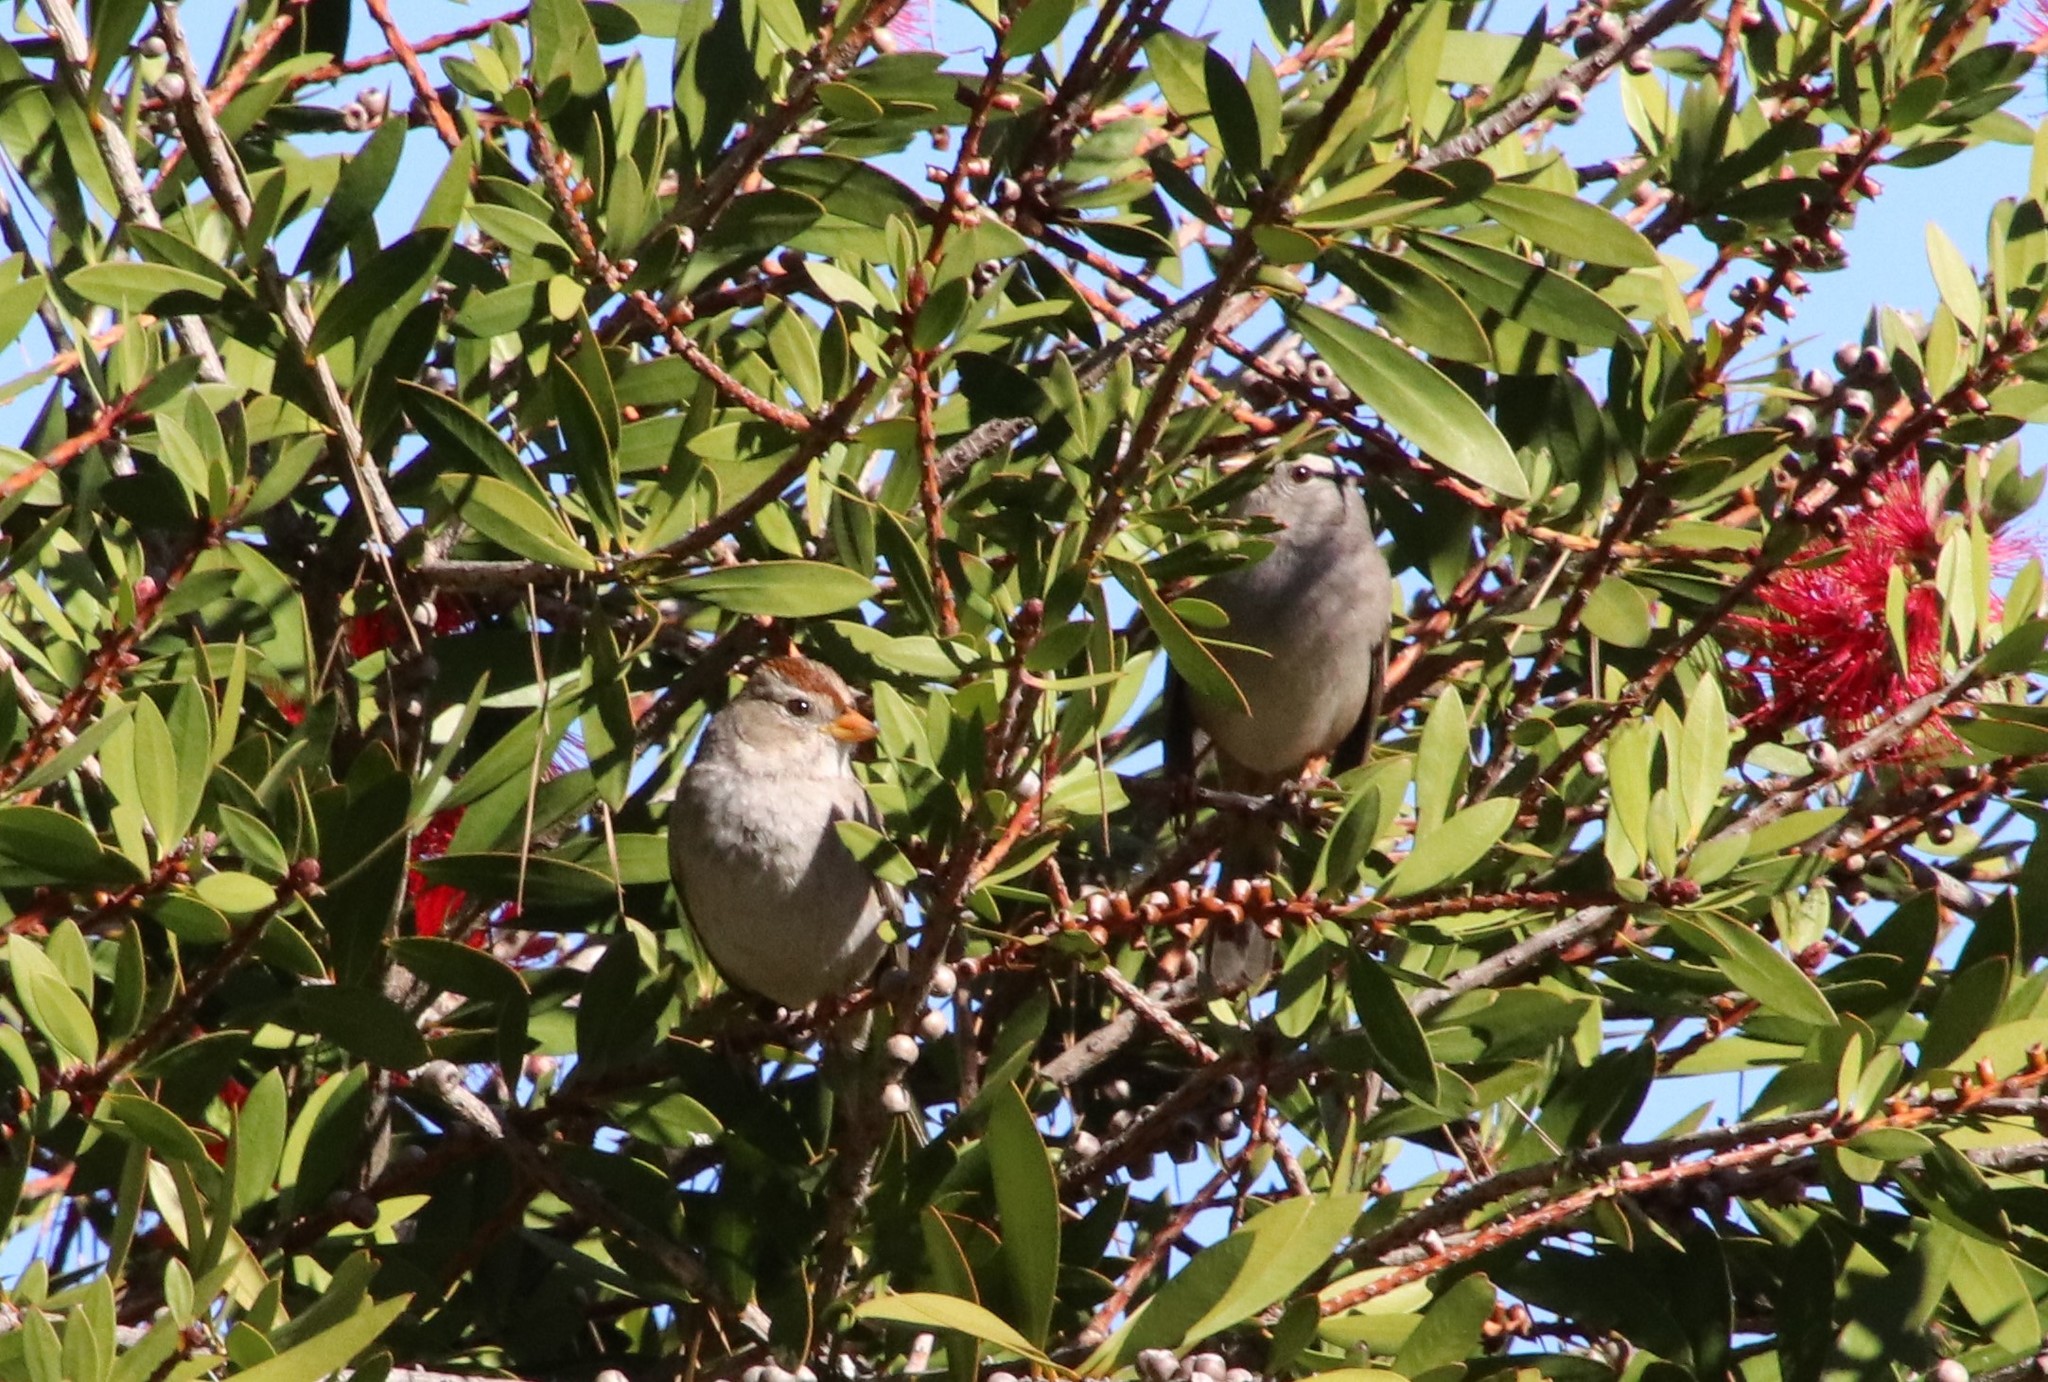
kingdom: Animalia
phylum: Chordata
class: Aves
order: Passeriformes
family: Passerellidae
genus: Zonotrichia
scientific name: Zonotrichia leucophrys
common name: White-crowned sparrow
